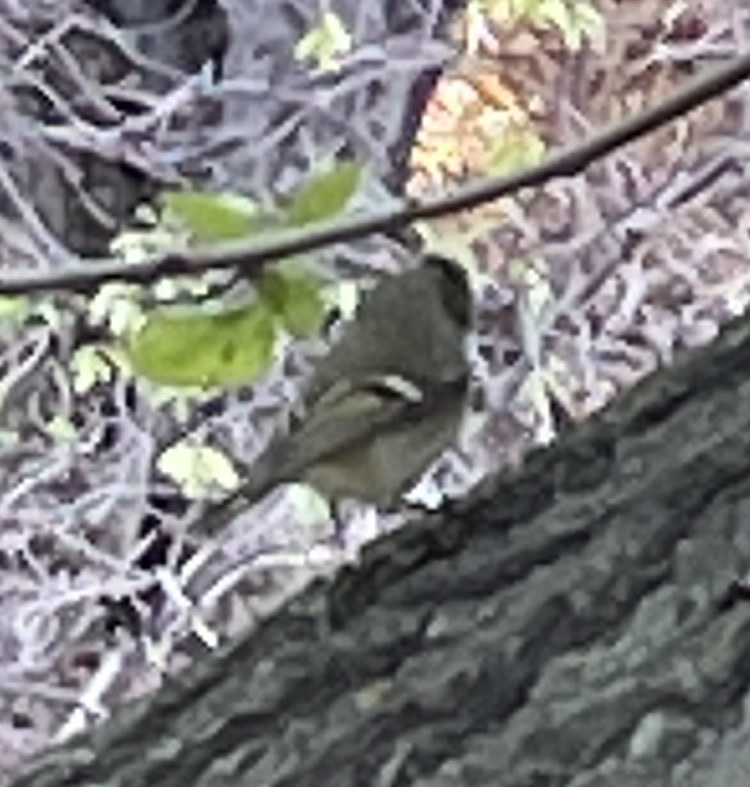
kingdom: Animalia
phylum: Chordata
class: Aves
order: Passeriformes
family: Regulidae
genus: Regulus
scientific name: Regulus calendula
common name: Ruby-crowned kinglet
